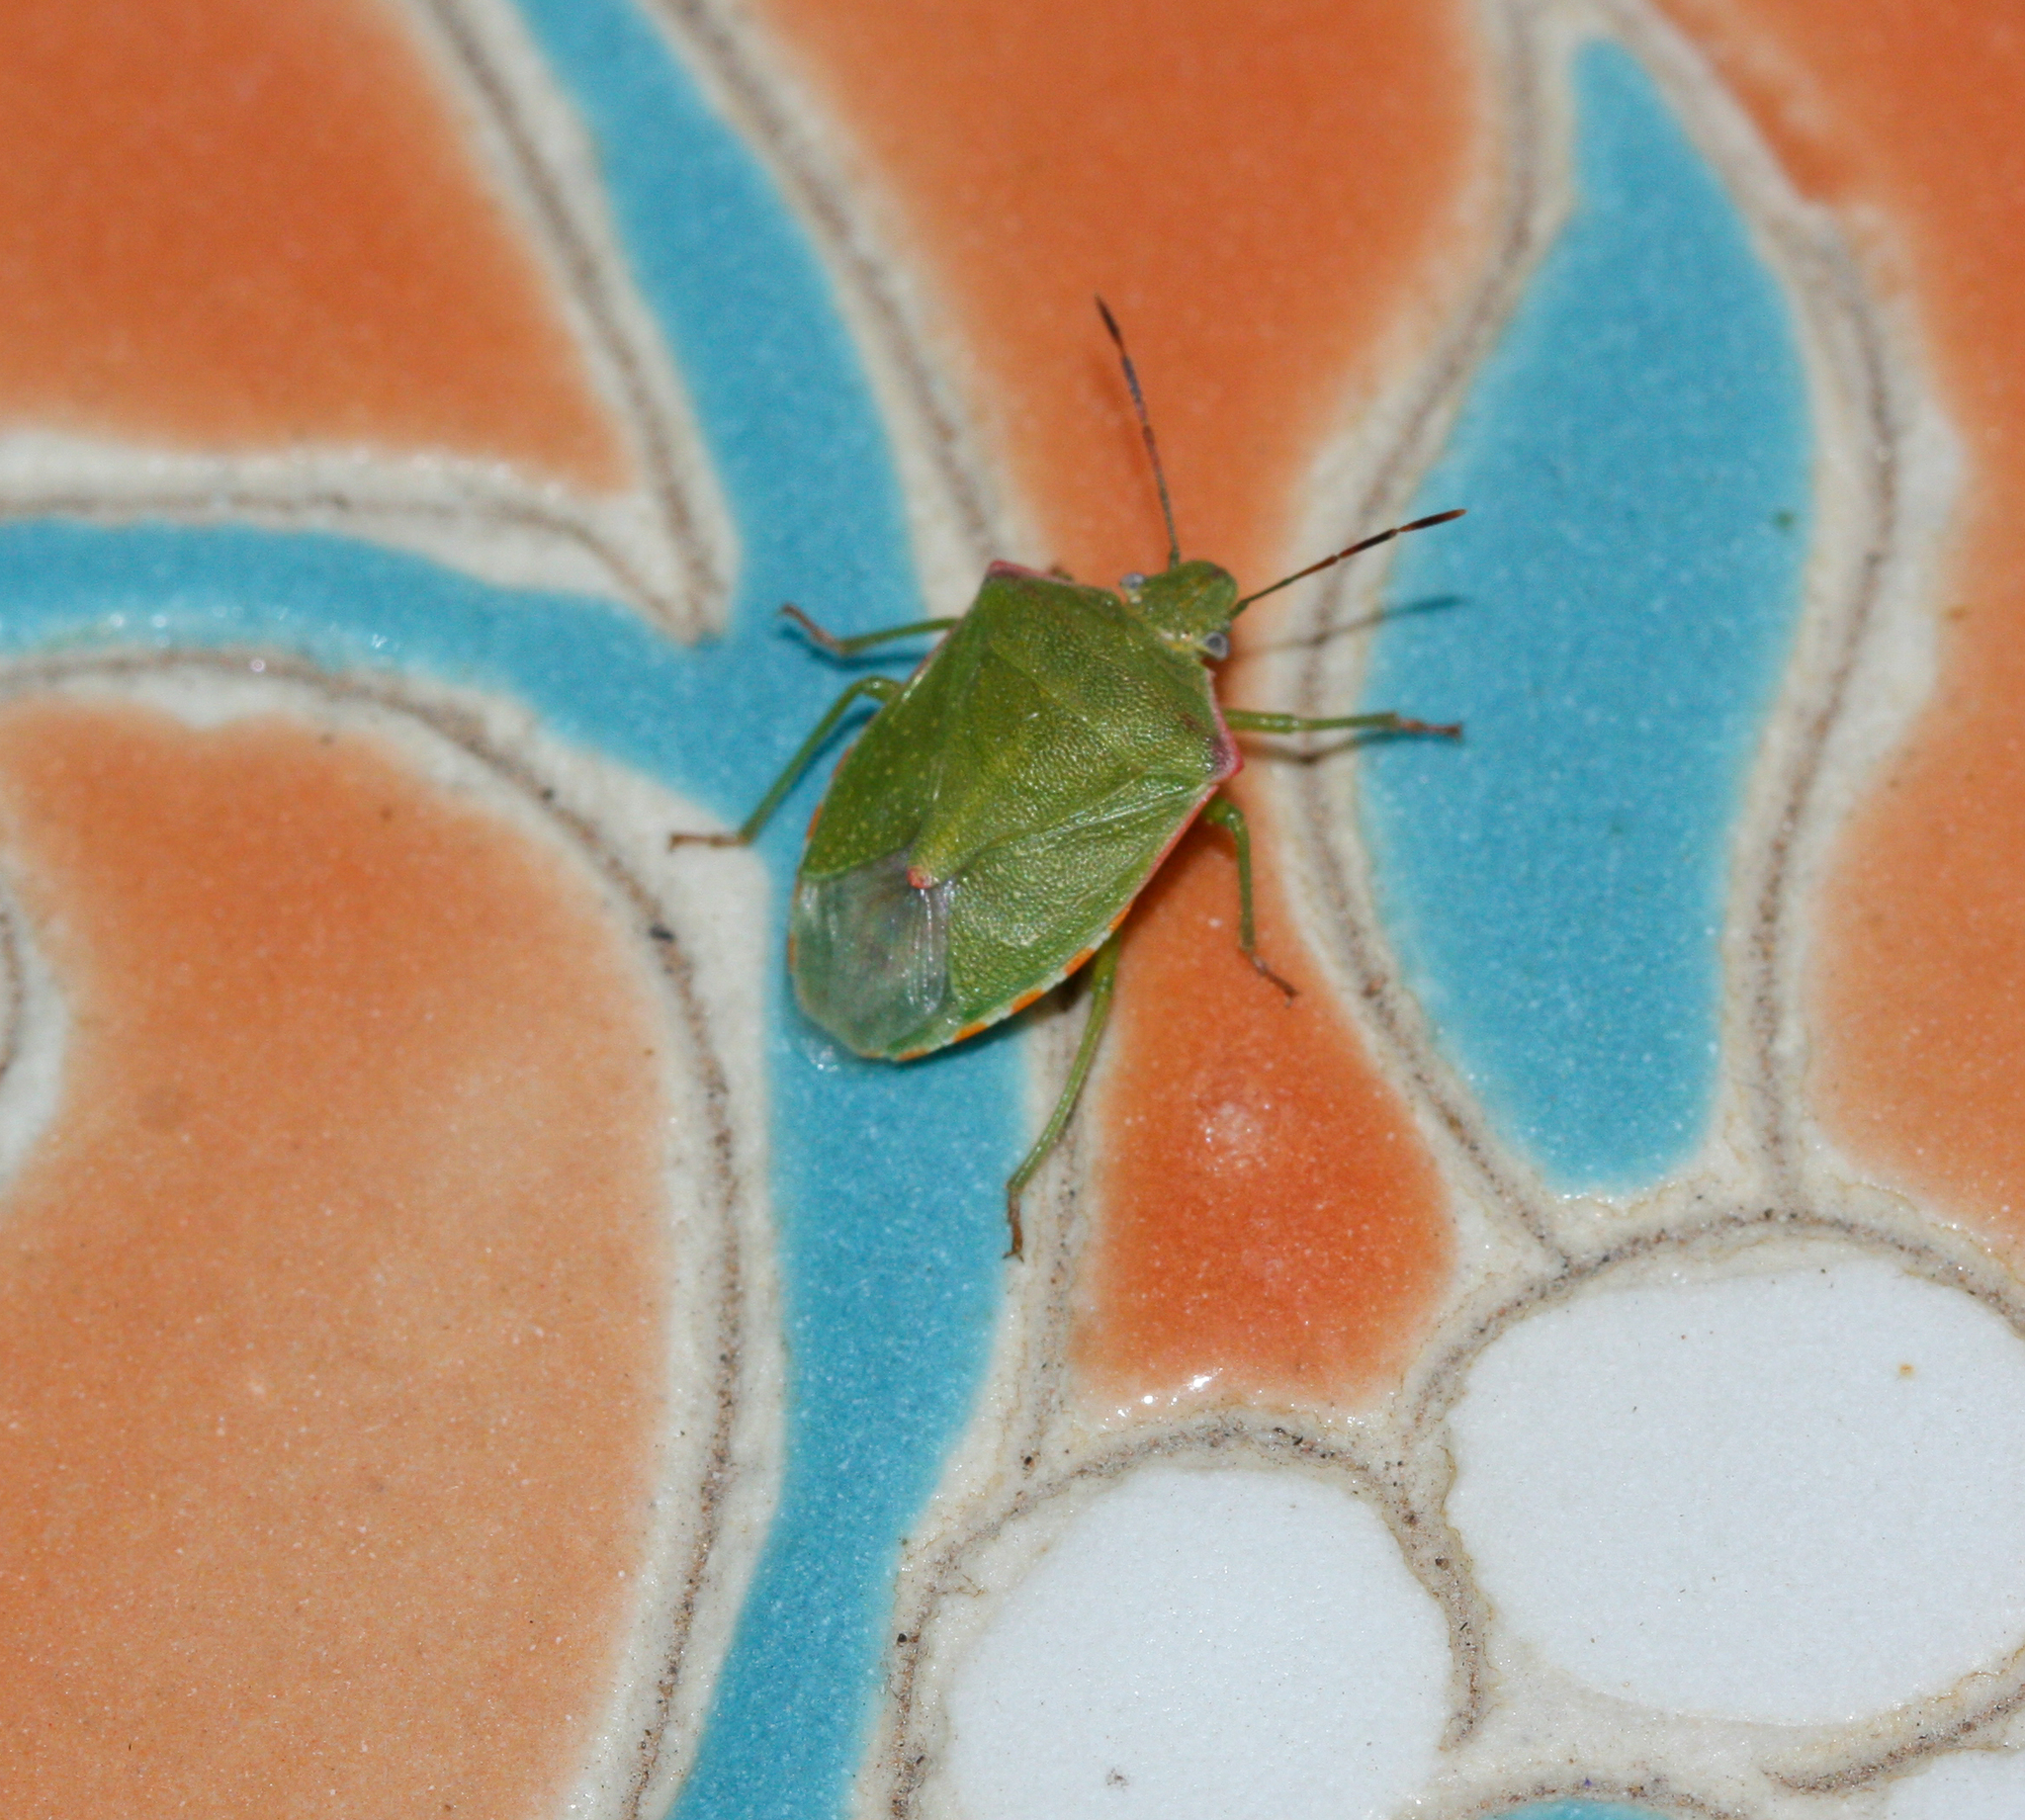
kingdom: Animalia
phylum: Arthropoda
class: Insecta
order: Hemiptera
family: Pentatomidae
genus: Thyanta
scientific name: Thyanta accerra
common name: Stink bug
